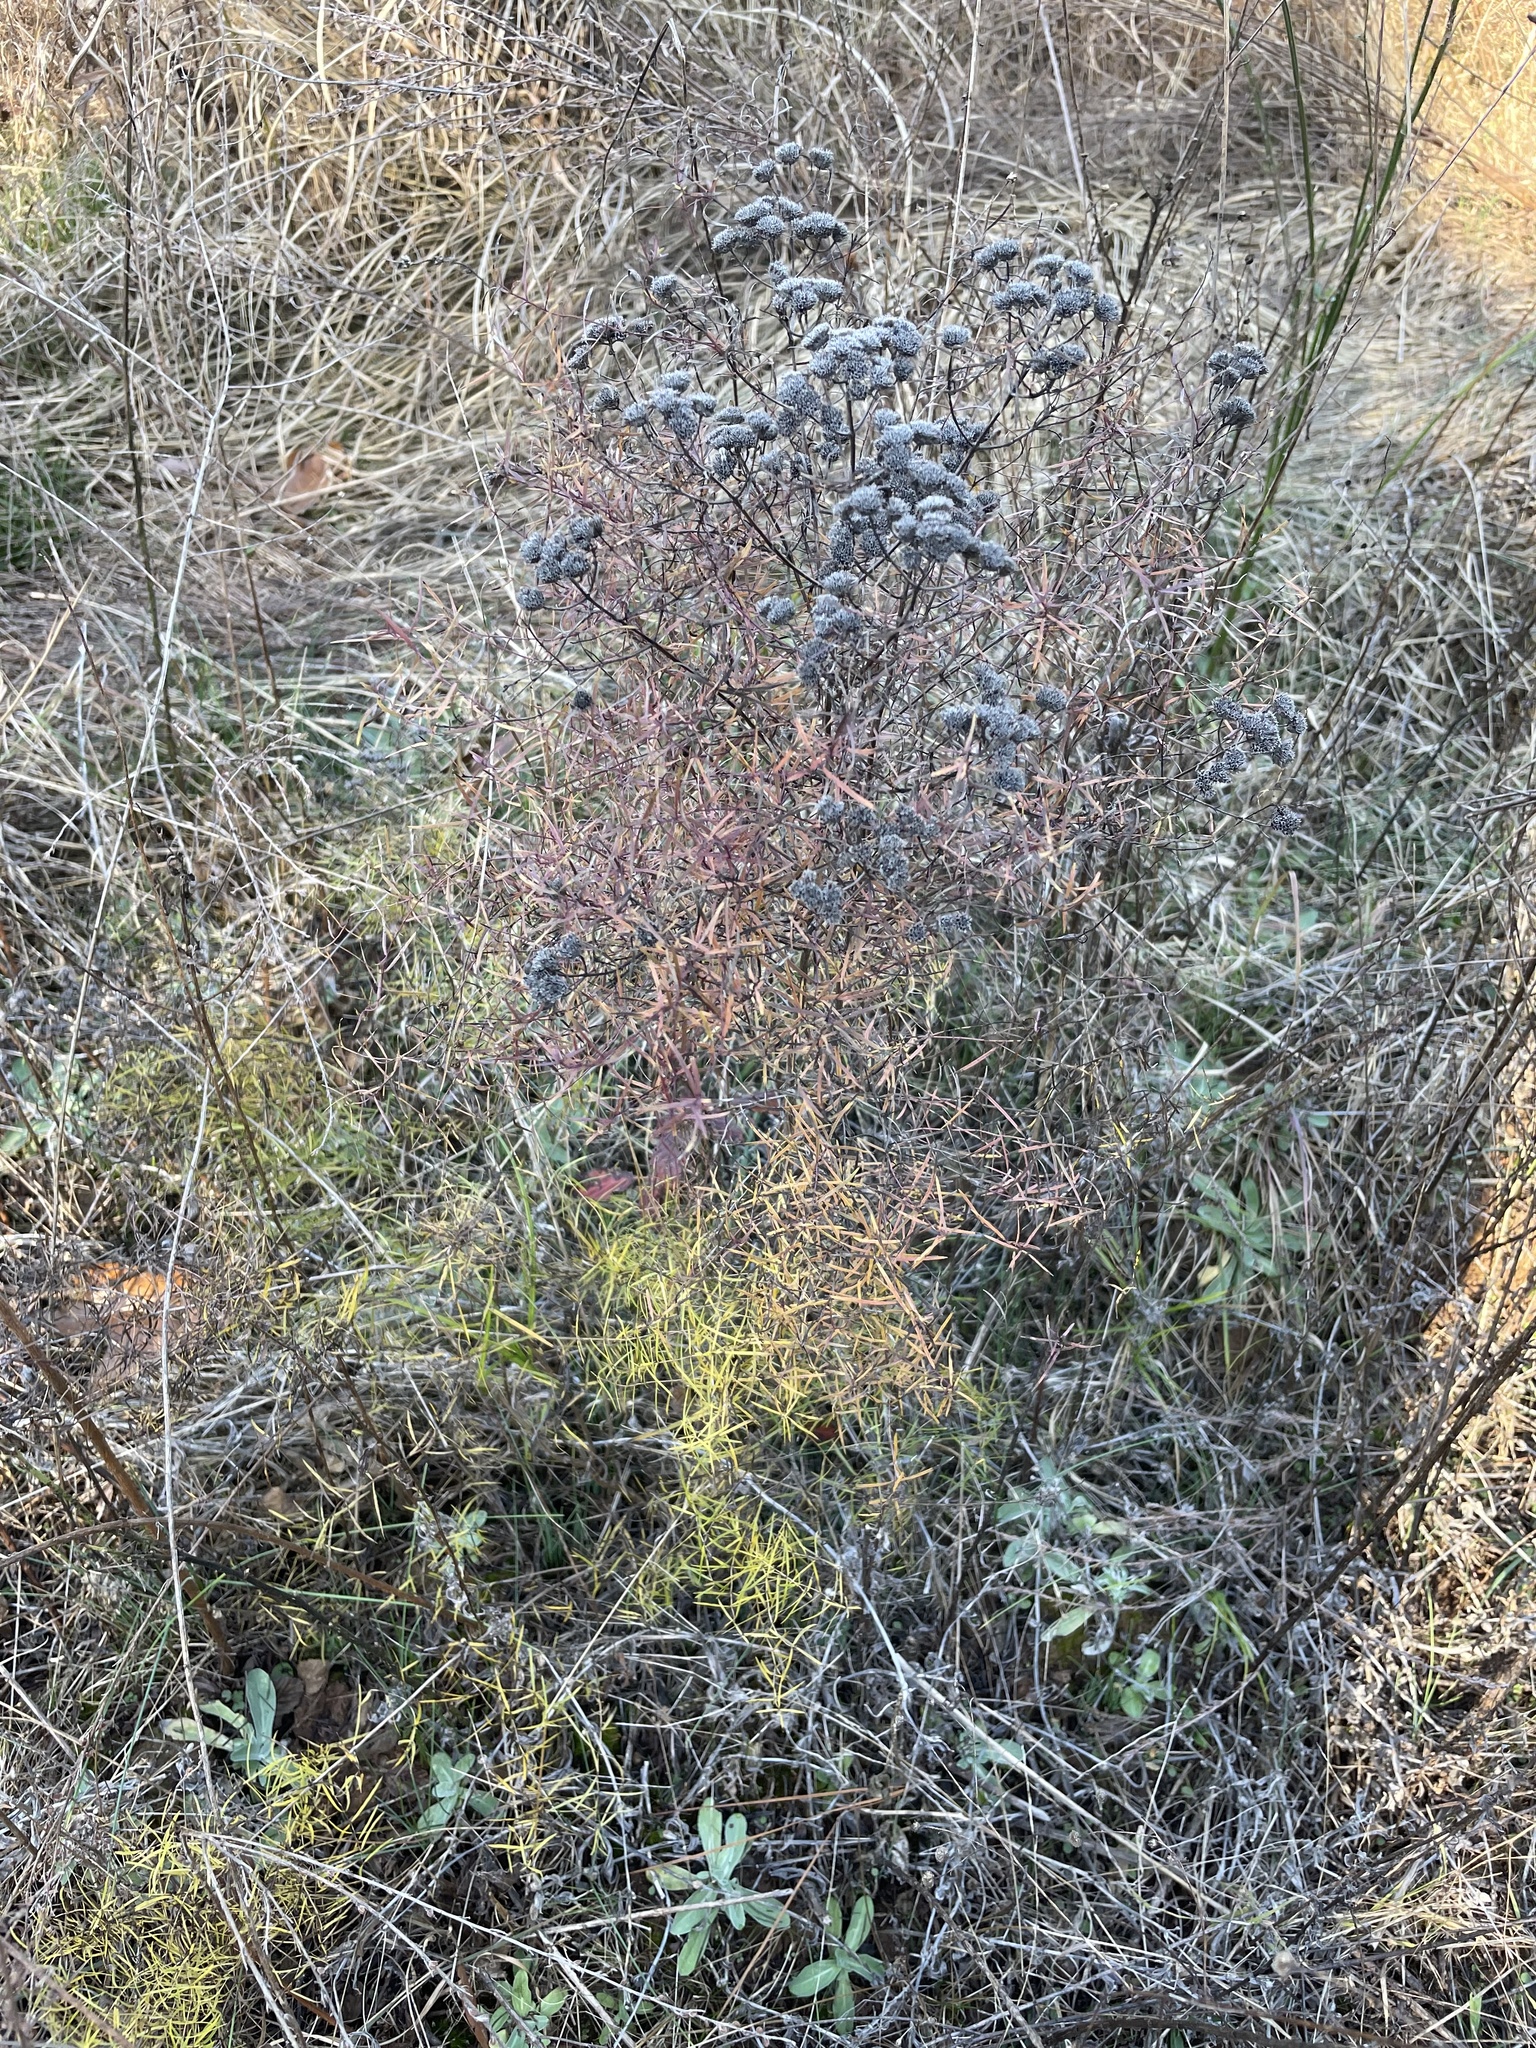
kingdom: Plantae
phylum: Tracheophyta
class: Magnoliopsida
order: Lamiales
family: Lamiaceae
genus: Pycnanthemum
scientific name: Pycnanthemum tenuifolium
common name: Narrow-leaf mountain-mint
